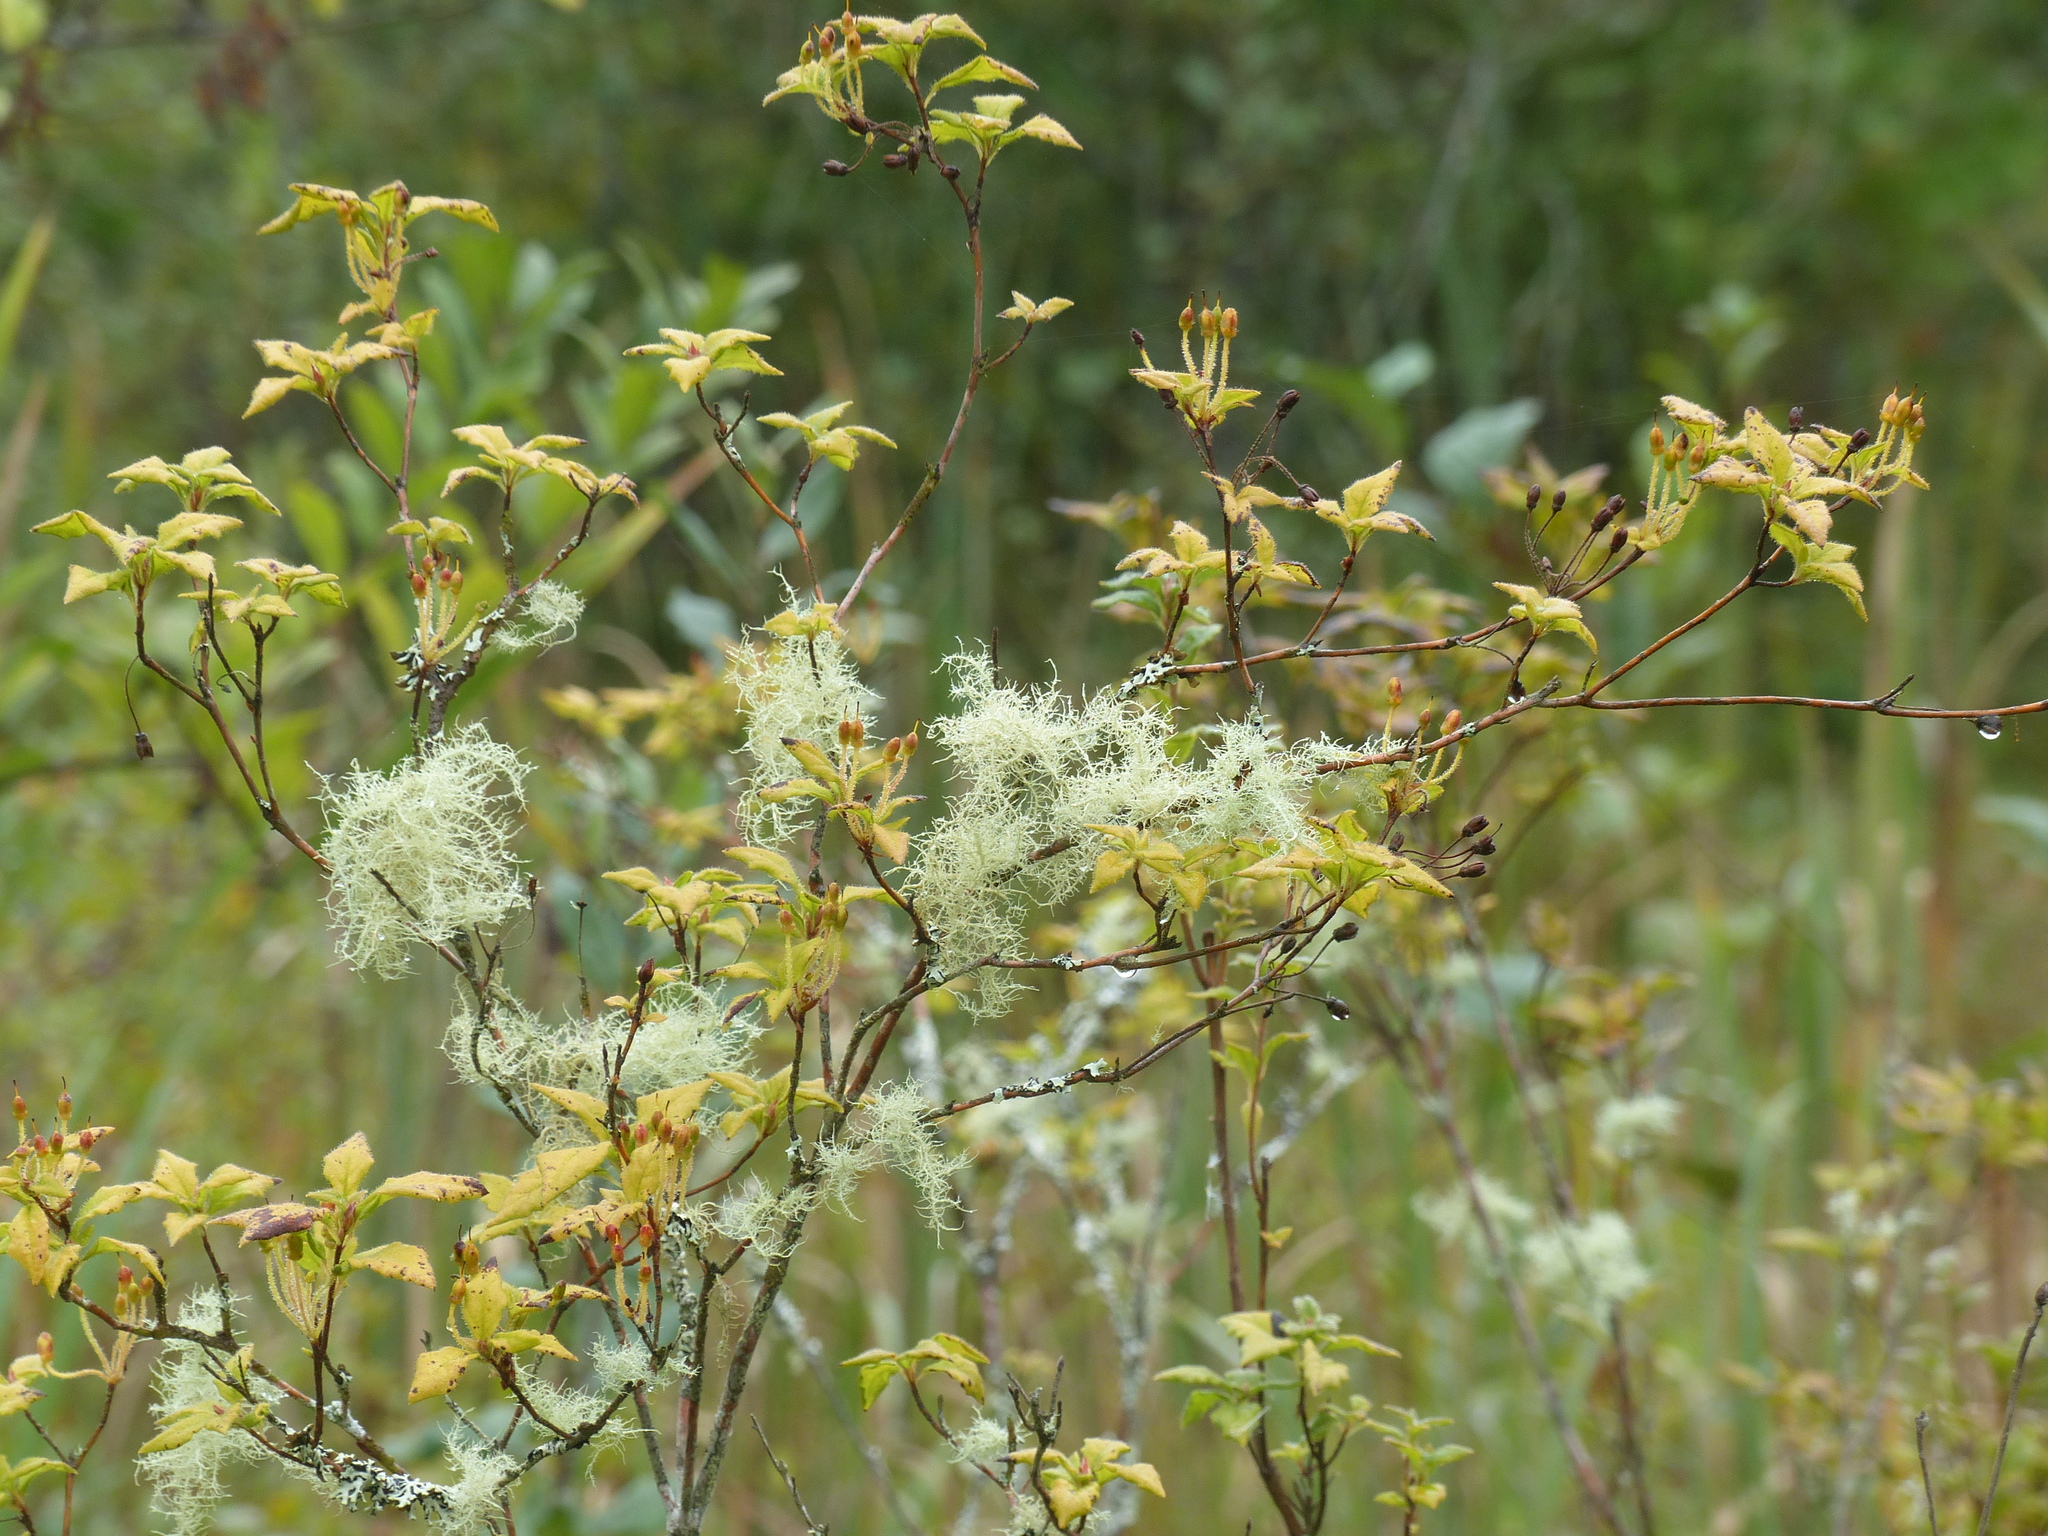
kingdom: Plantae
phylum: Tracheophyta
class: Magnoliopsida
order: Ericales
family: Ericaceae
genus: Rhododendron
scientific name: Rhododendron menziesii
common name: Pacific menziesia
